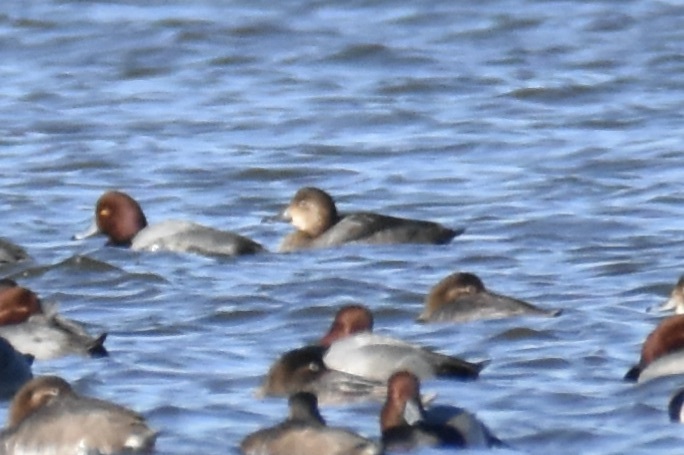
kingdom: Animalia
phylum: Chordata
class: Aves
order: Anseriformes
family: Anatidae
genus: Aythya
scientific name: Aythya americana
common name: Redhead
